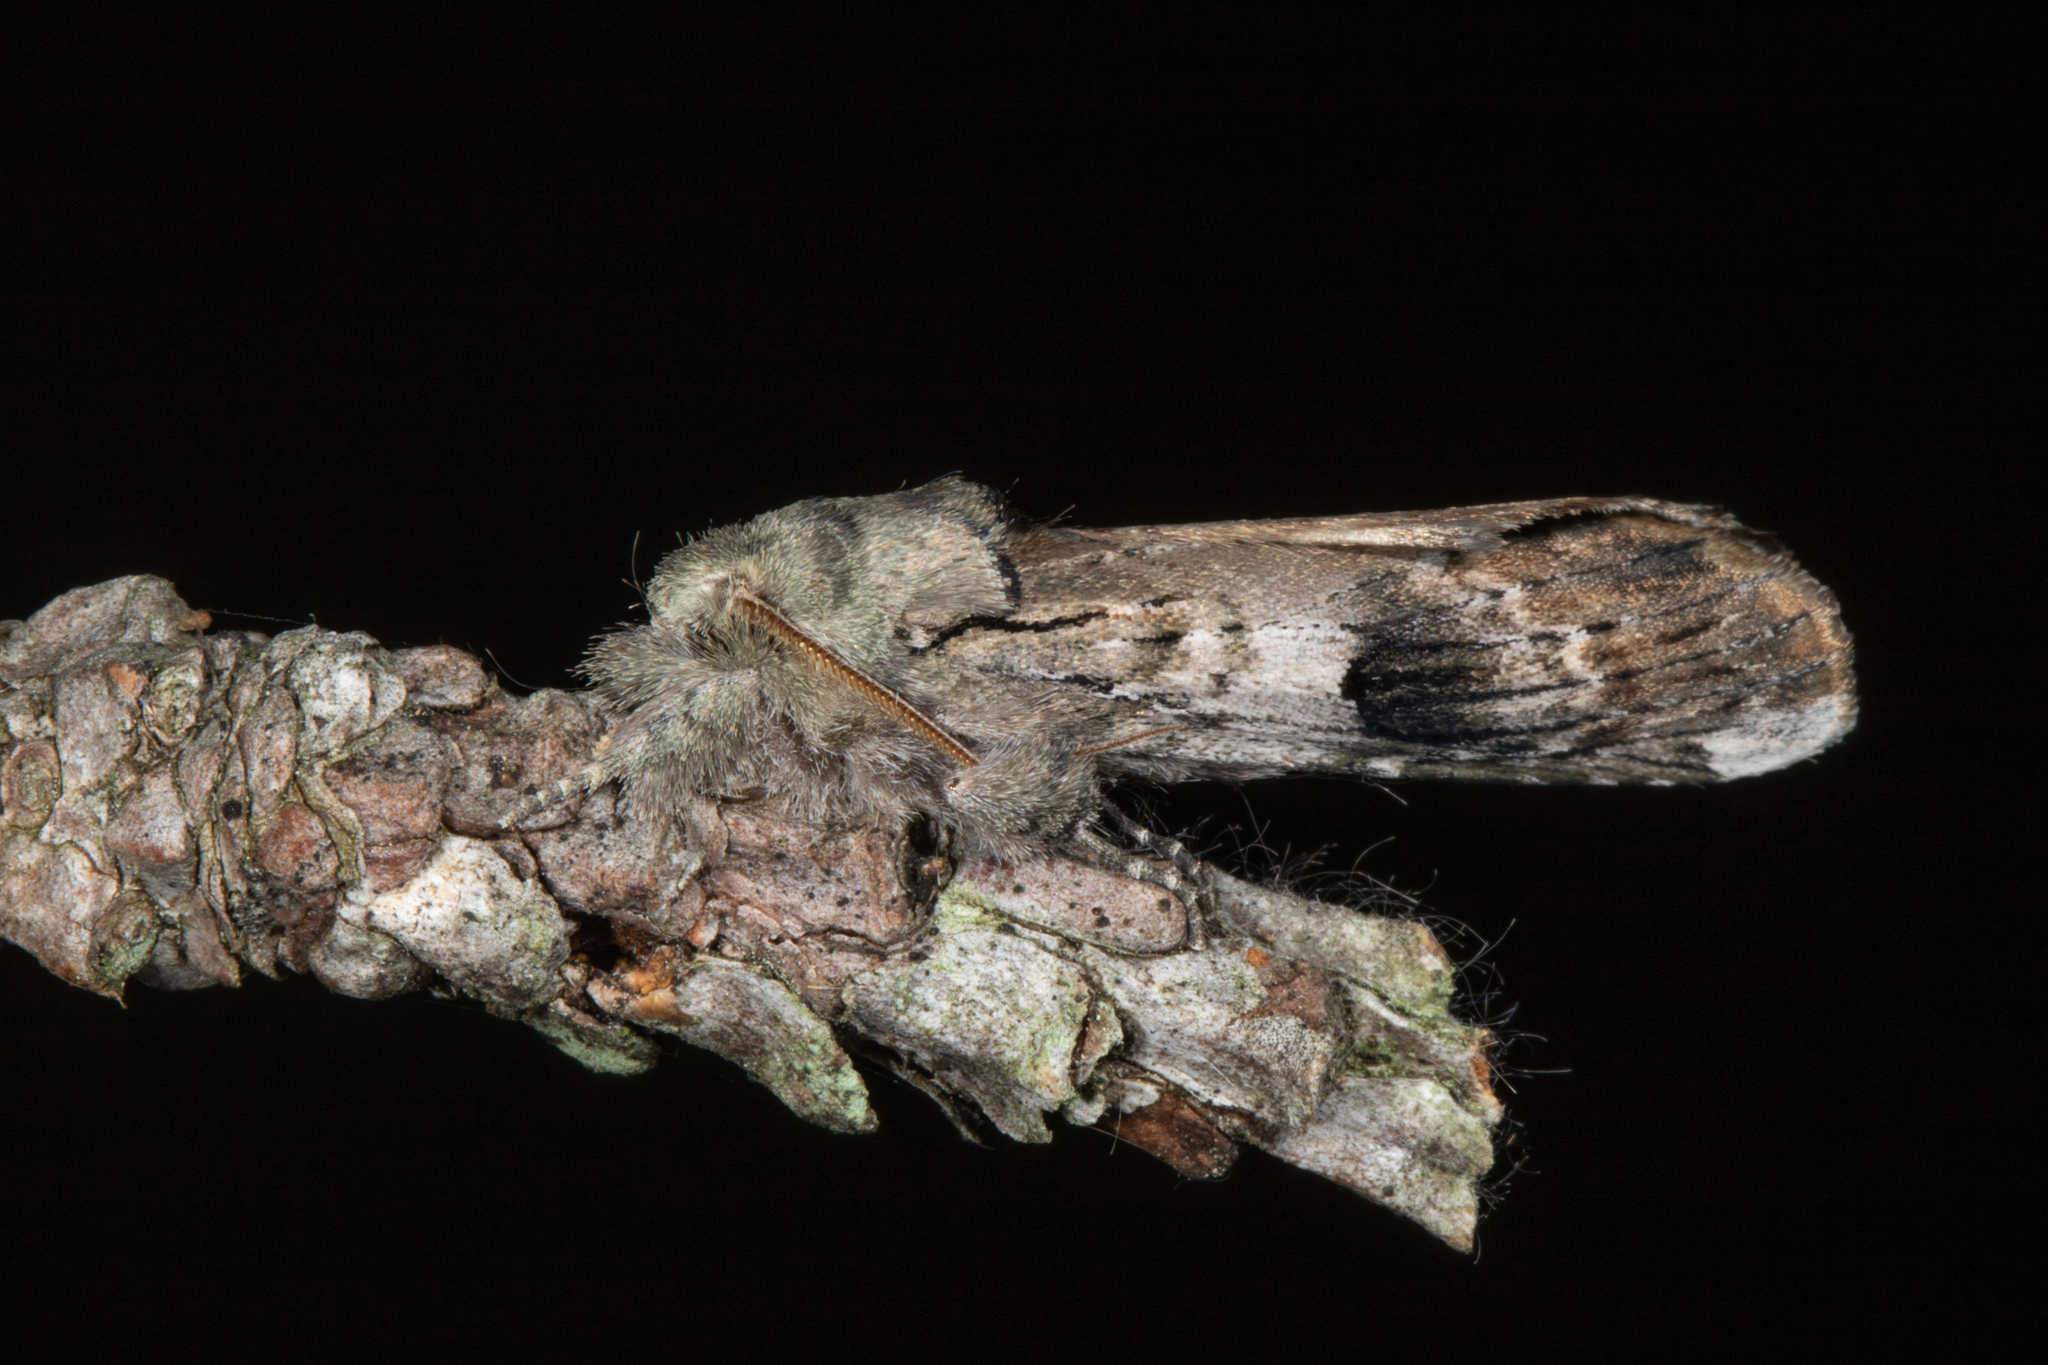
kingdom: Animalia
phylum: Arthropoda
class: Insecta
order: Lepidoptera
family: Notodontidae
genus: Schizura
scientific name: Schizura badia
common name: Chestnut schizura
